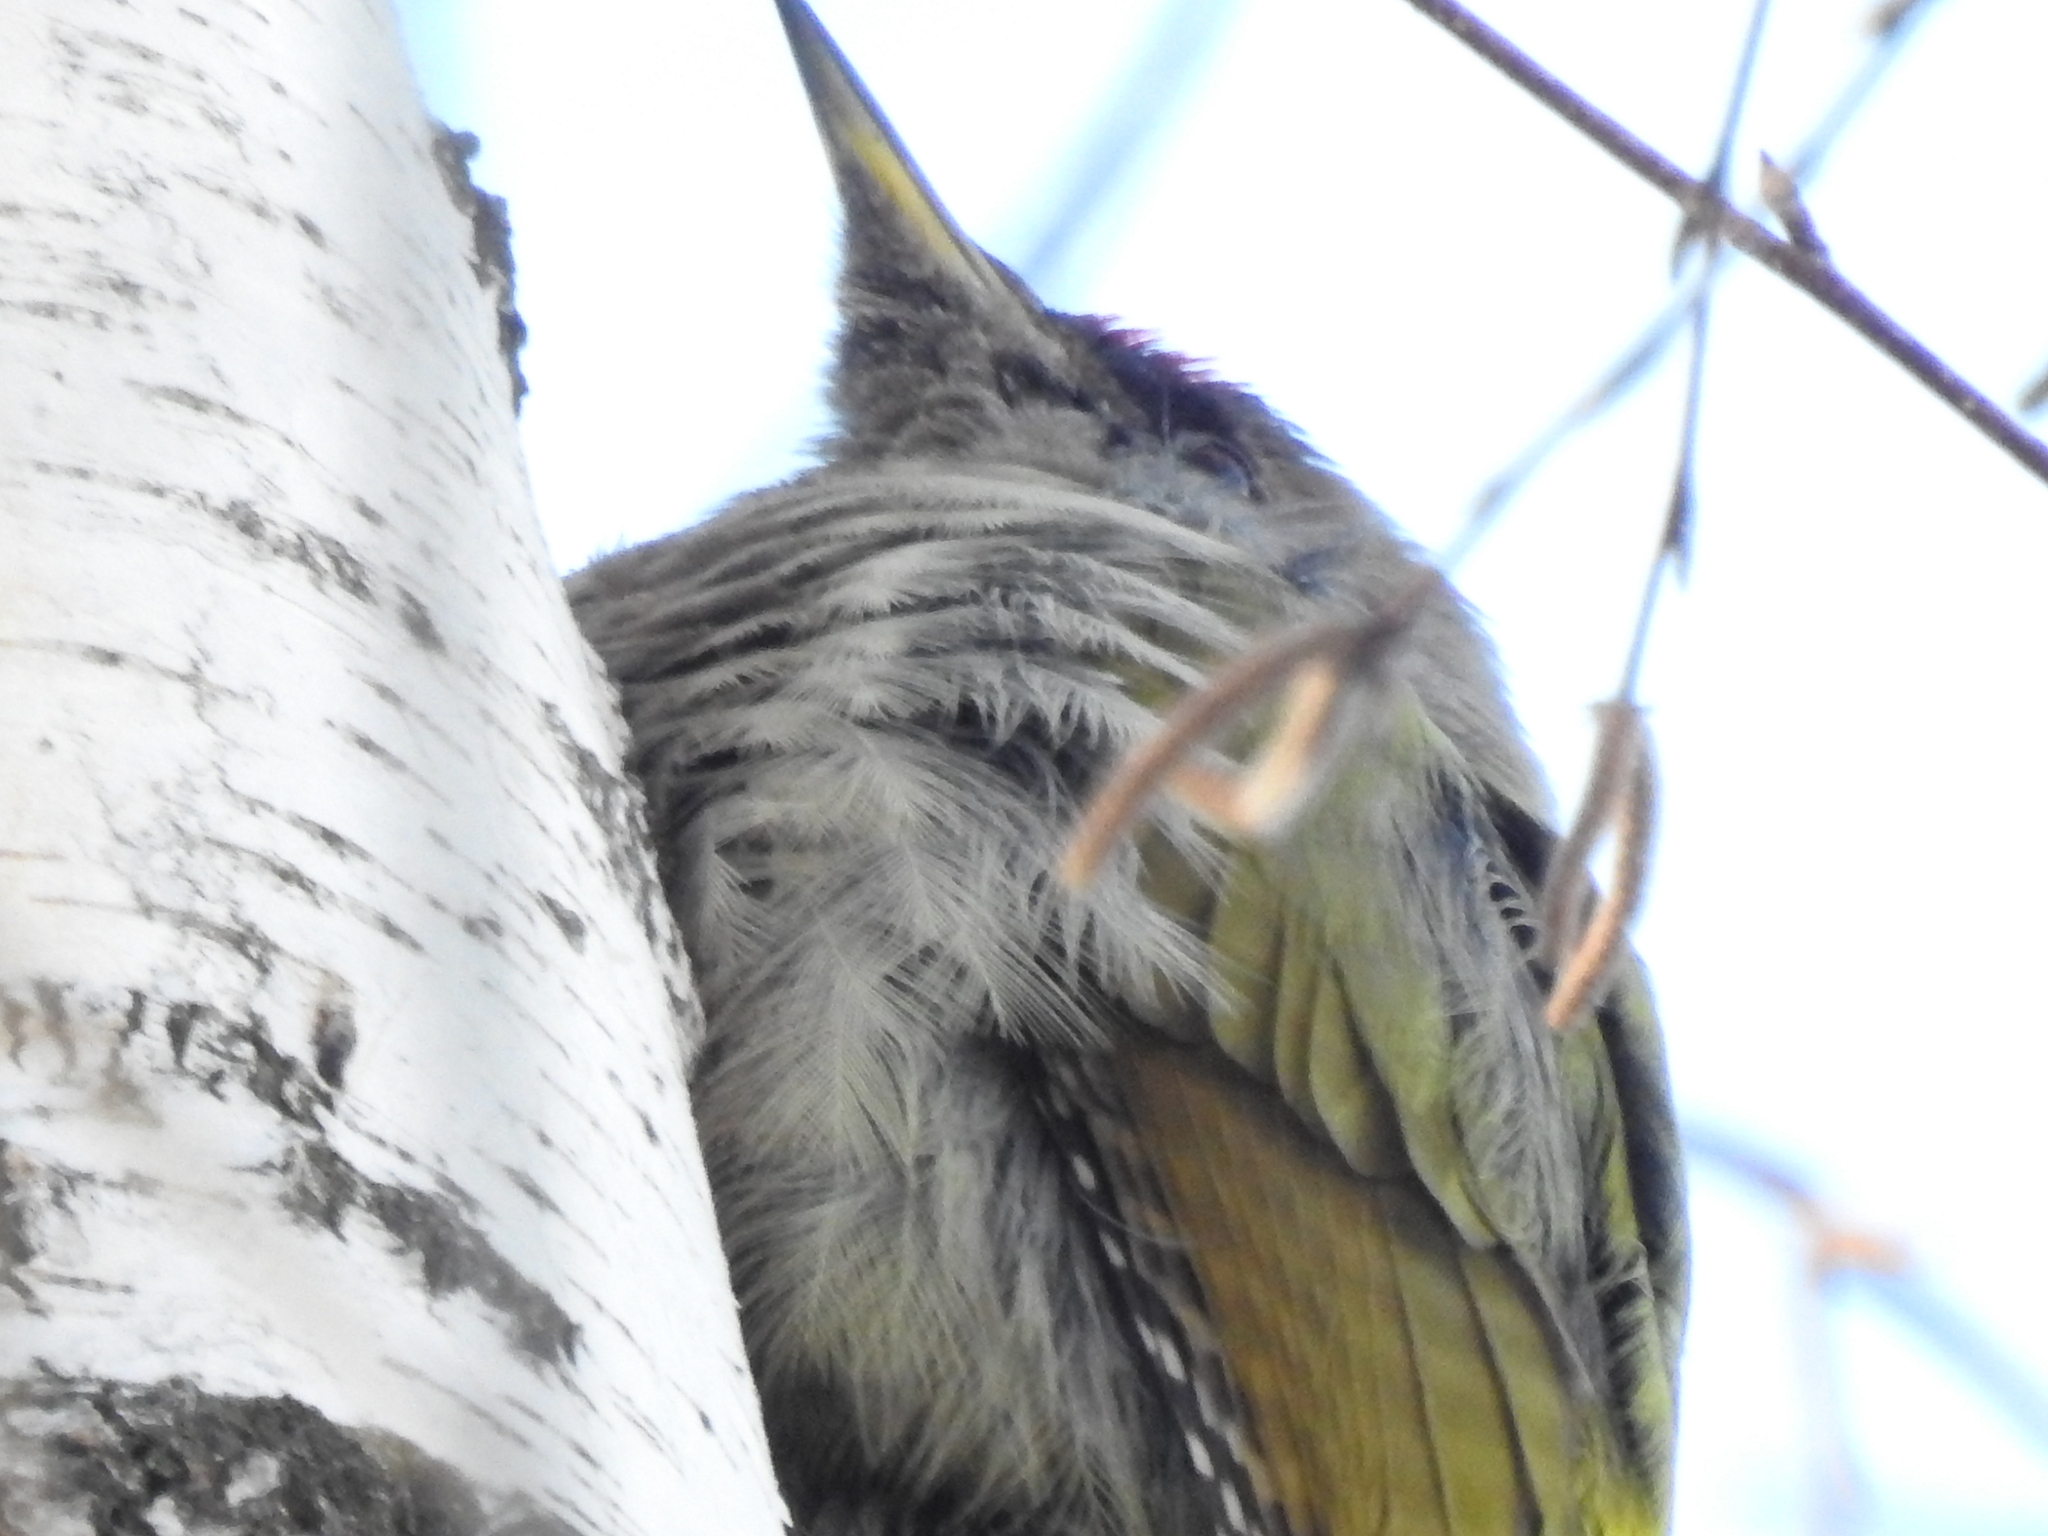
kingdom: Animalia
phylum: Chordata
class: Aves
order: Piciformes
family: Picidae
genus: Picus
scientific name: Picus canus
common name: Grey-headed woodpecker
